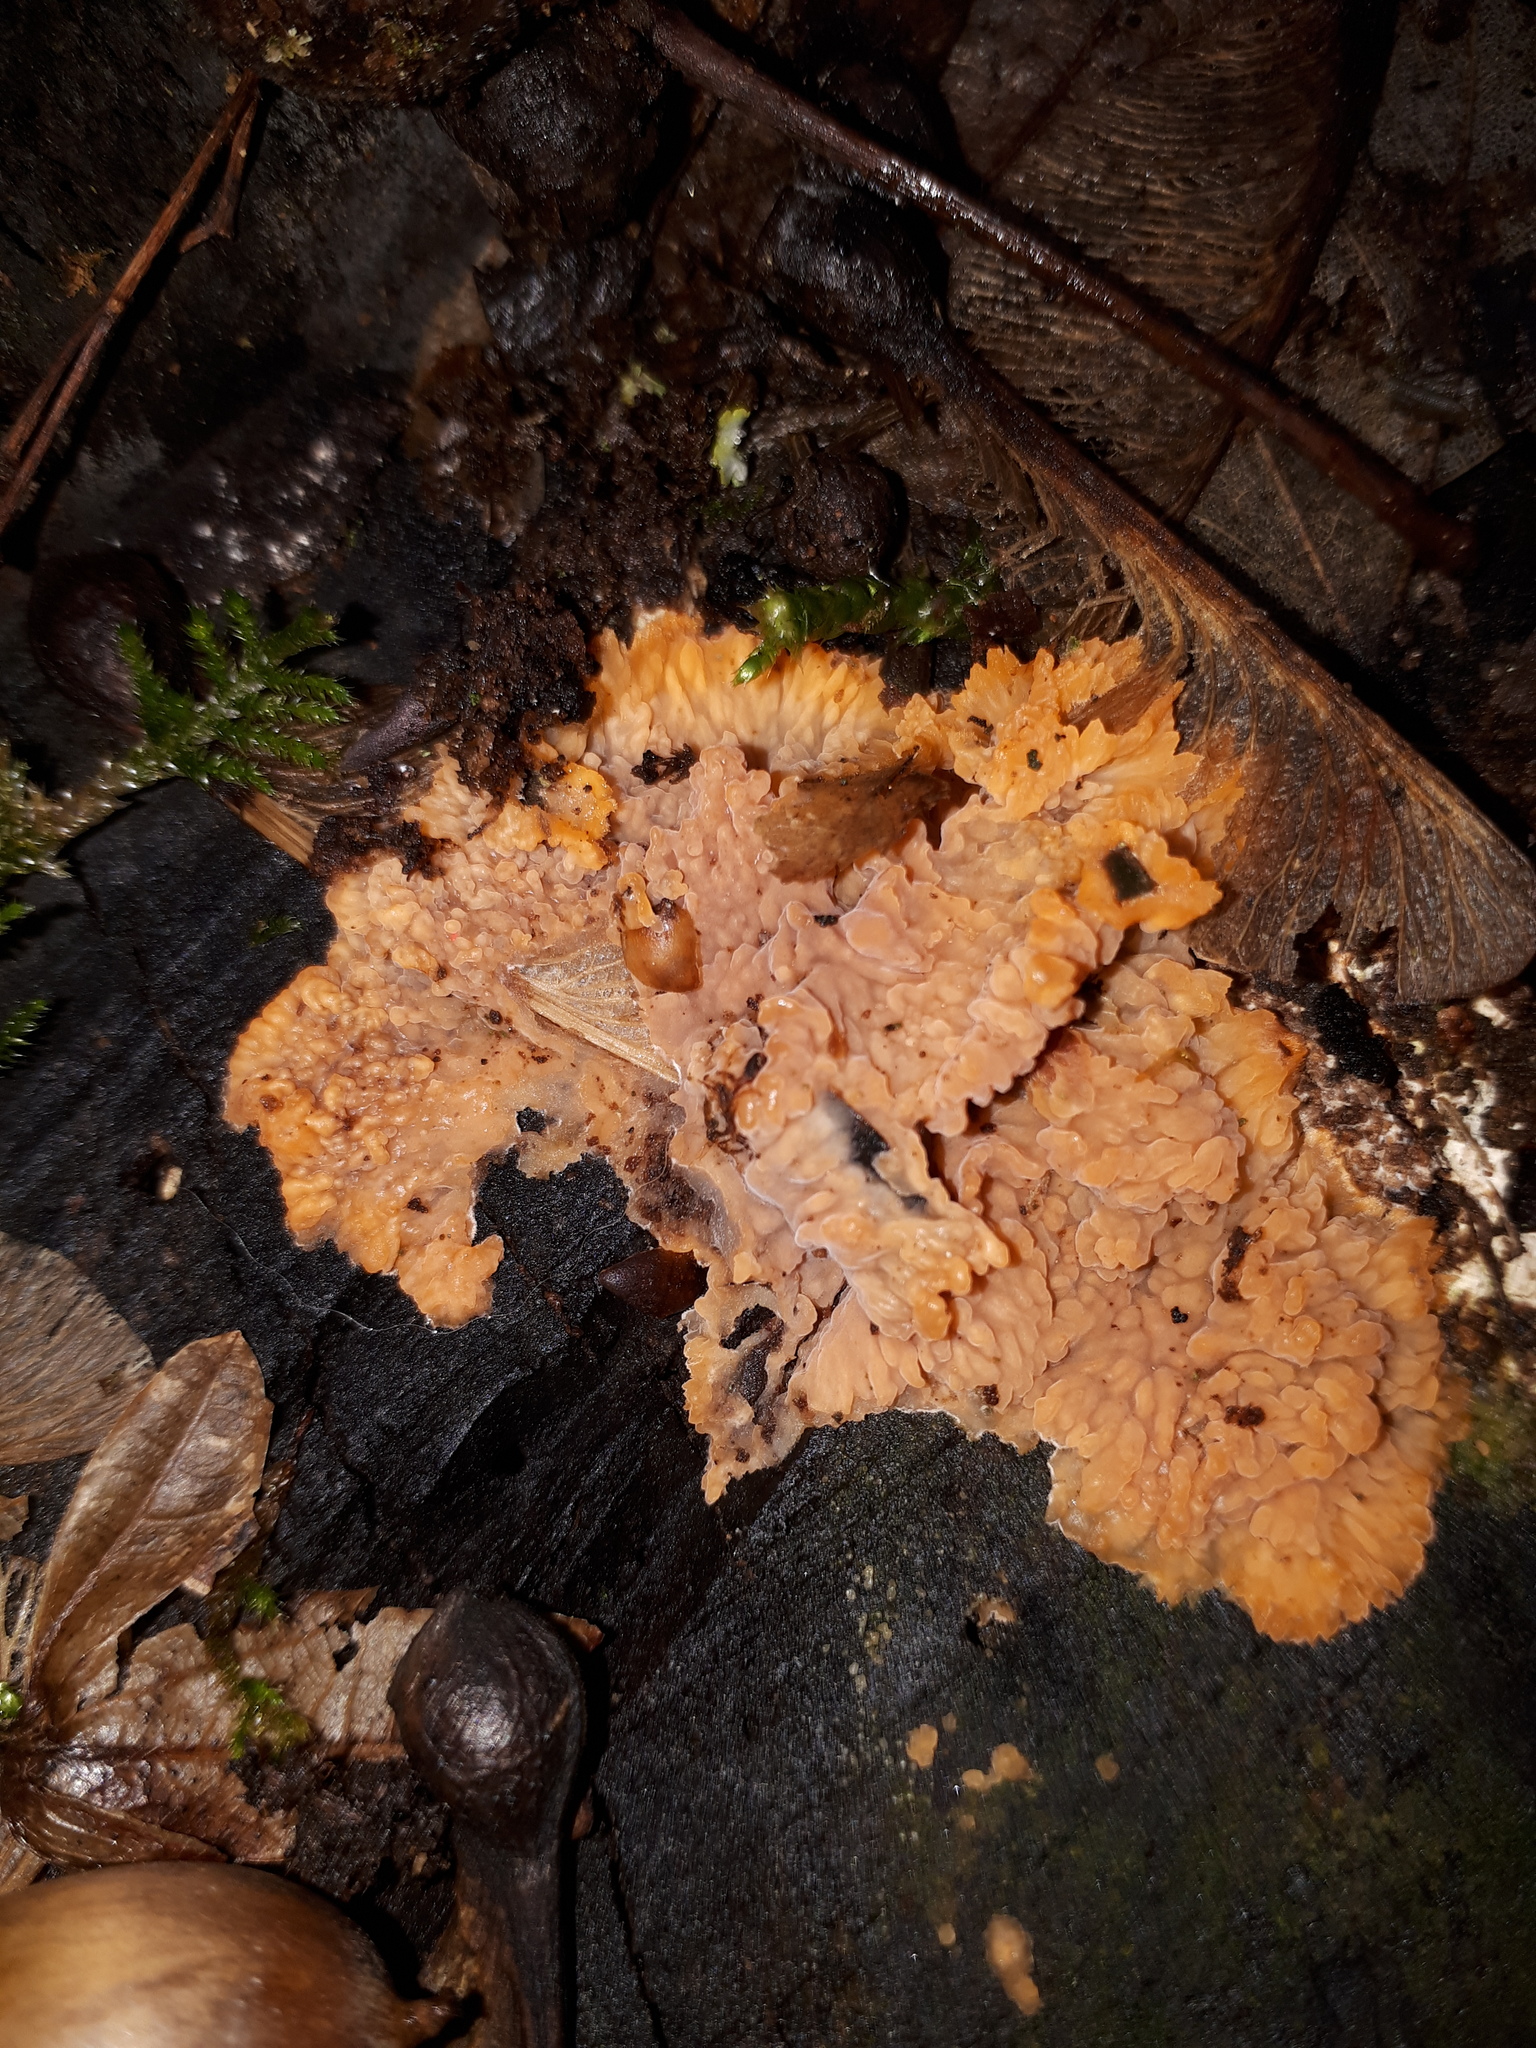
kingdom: Fungi
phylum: Basidiomycota
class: Agaricomycetes
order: Polyporales
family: Meruliaceae
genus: Phlebia
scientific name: Phlebia radiata
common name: Wrinkled crust
